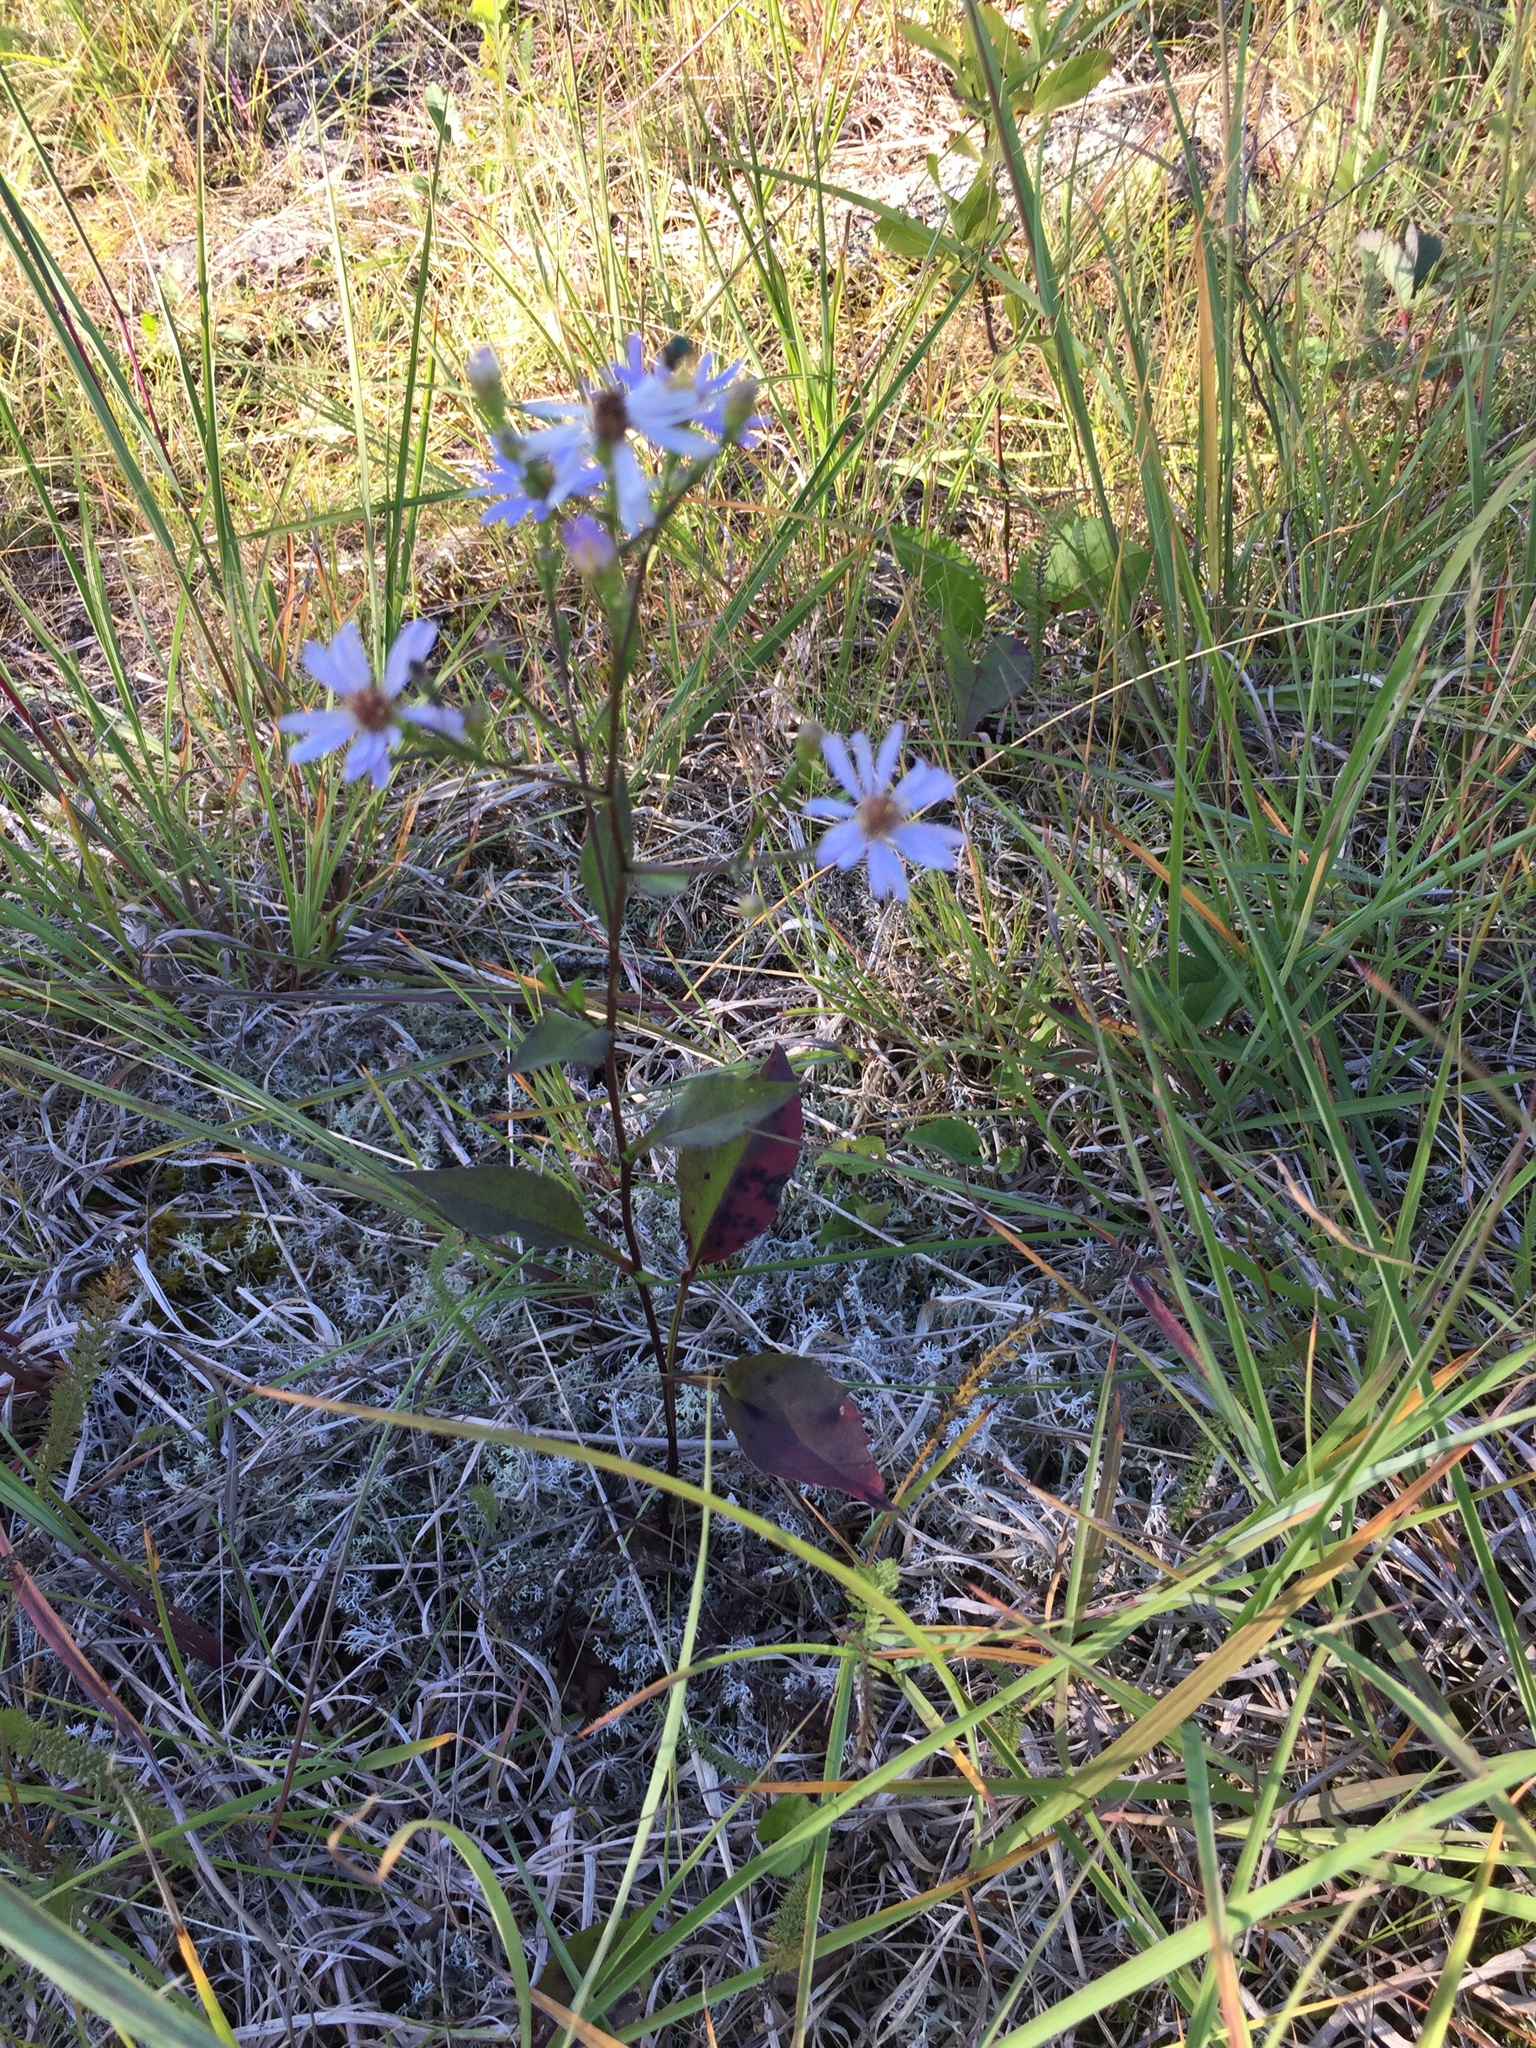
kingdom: Plantae
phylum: Tracheophyta
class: Magnoliopsida
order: Asterales
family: Asteraceae
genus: Symphyotrichum
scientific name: Symphyotrichum laeve
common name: Glaucous aster
